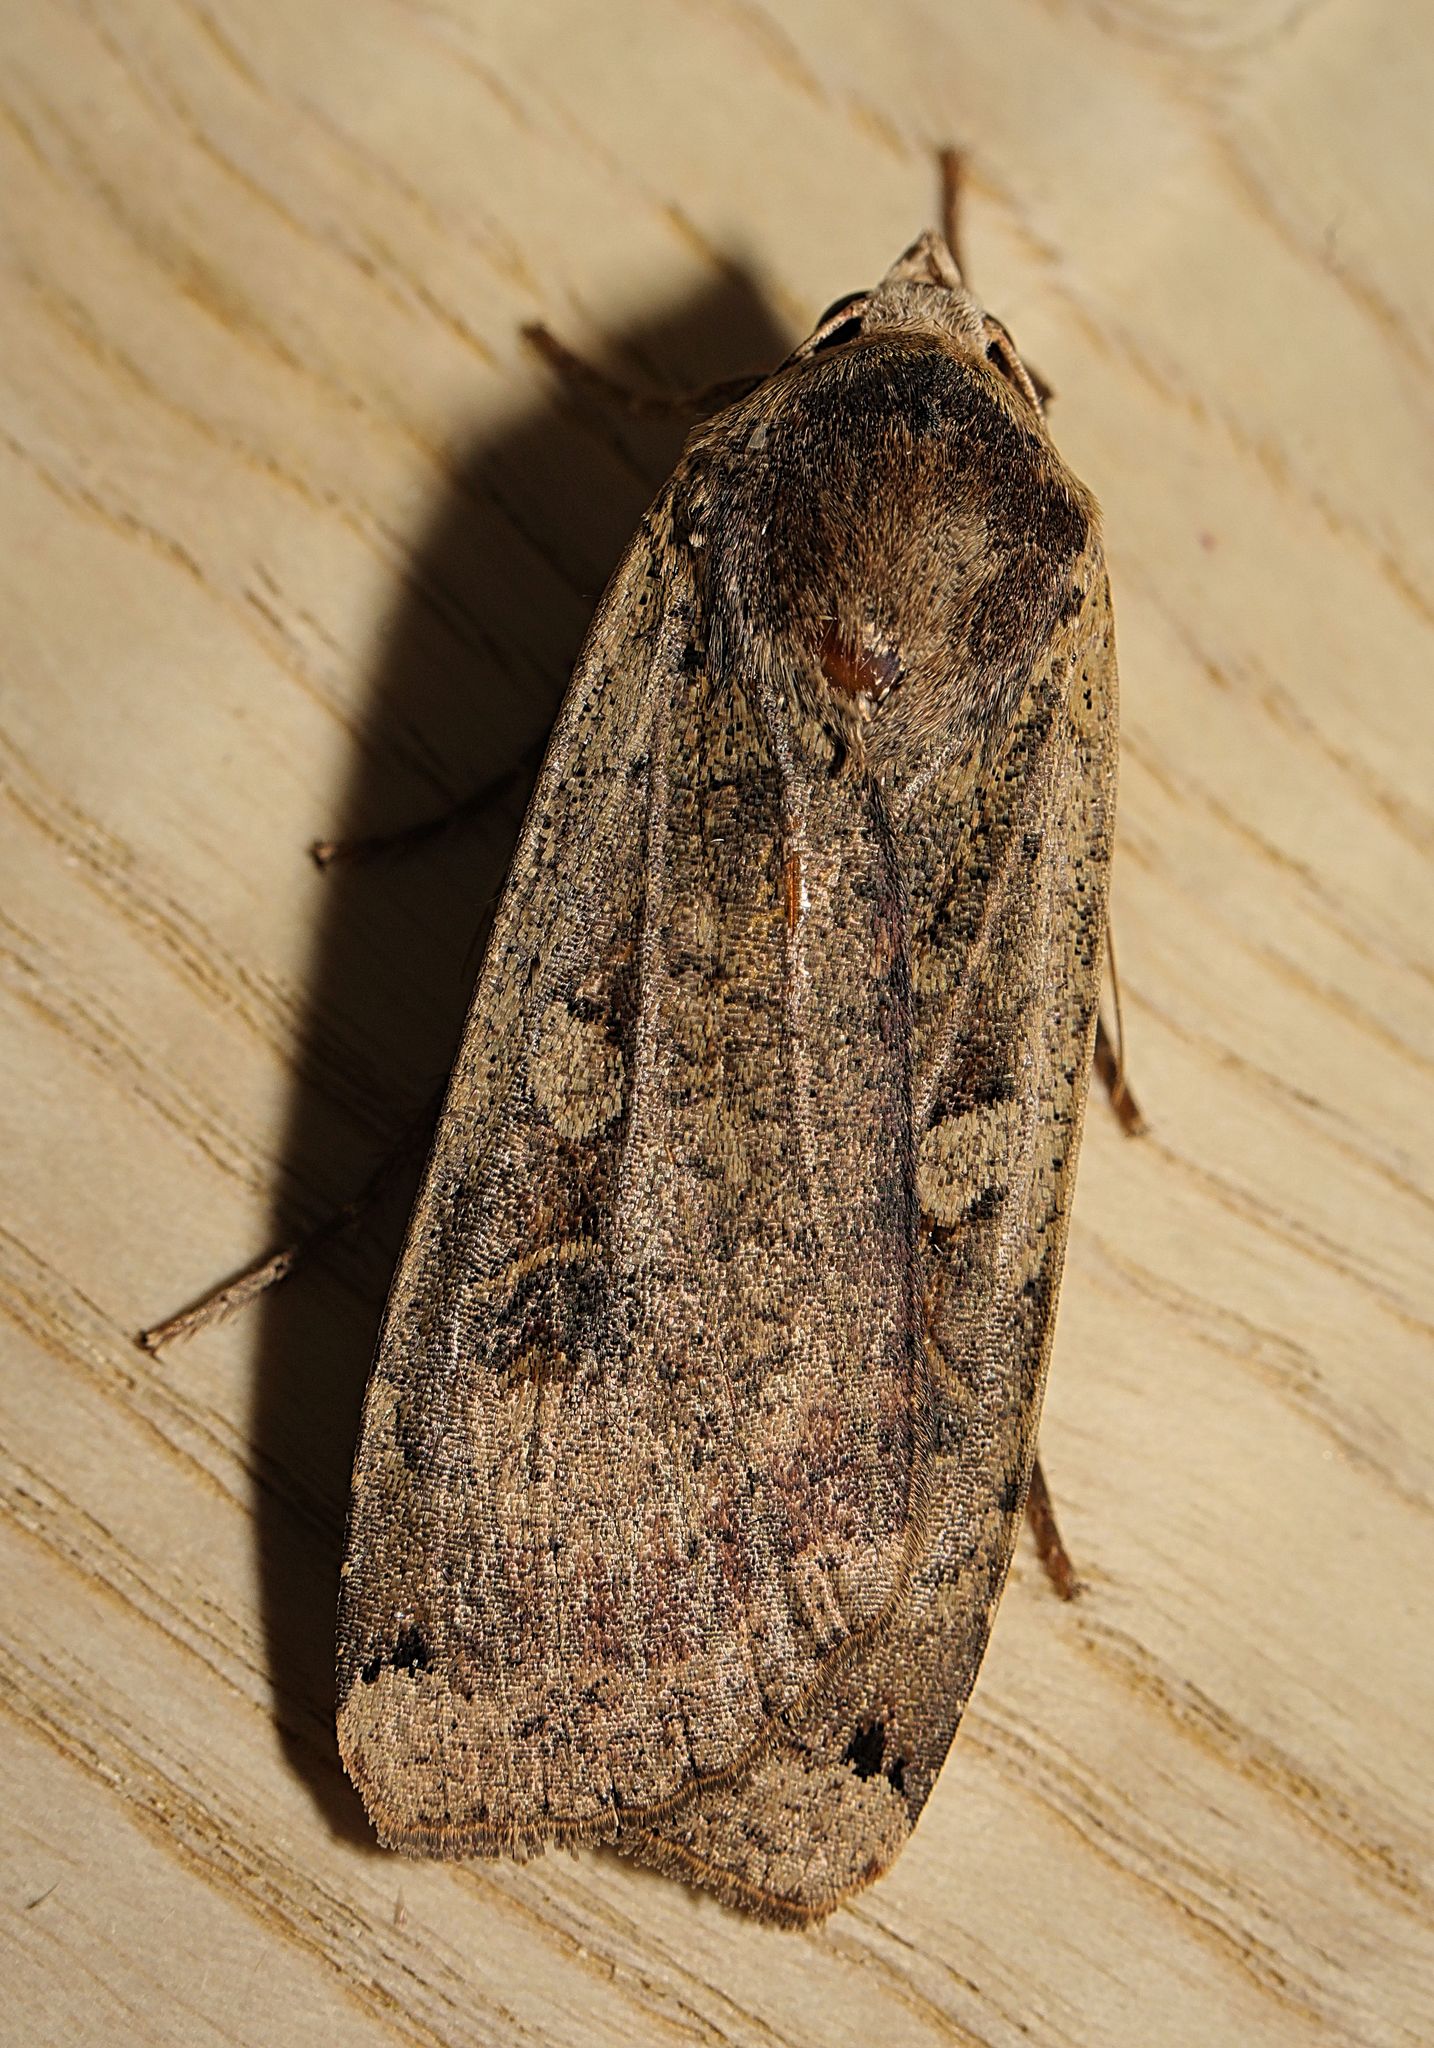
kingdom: Animalia
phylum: Arthropoda
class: Insecta
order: Lepidoptera
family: Noctuidae
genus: Noctua
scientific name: Noctua pronuba
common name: Large yellow underwing
